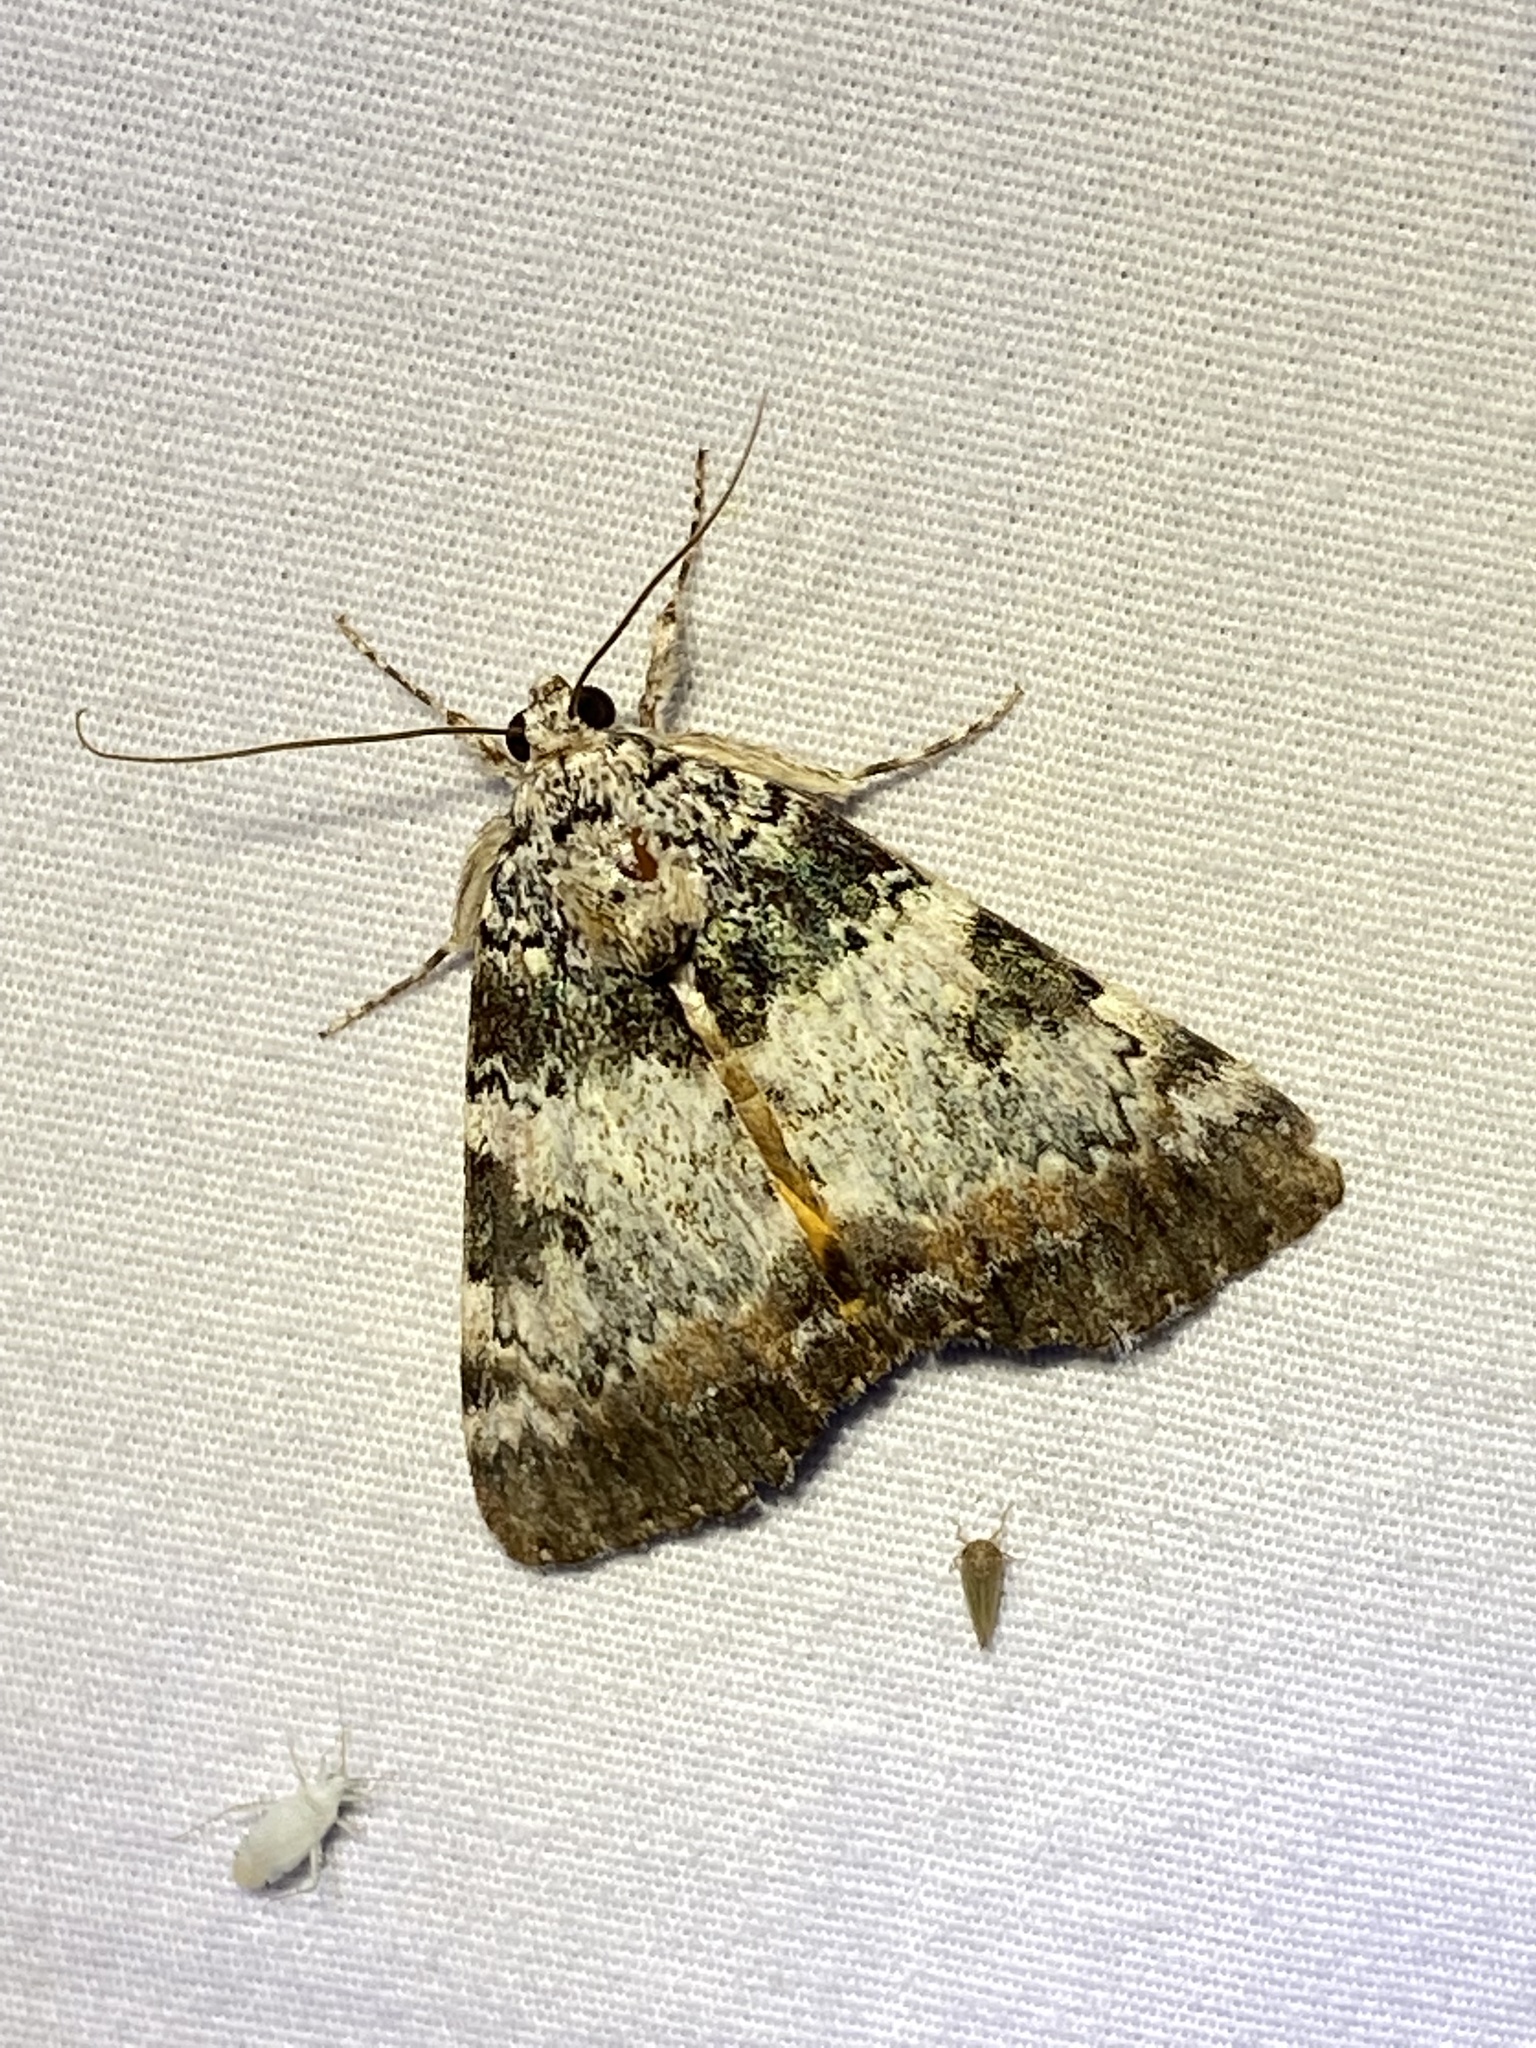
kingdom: Animalia
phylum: Arthropoda
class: Insecta
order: Lepidoptera
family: Erebidae
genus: Catocala
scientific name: Catocala connubialis
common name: Connubial underwing
